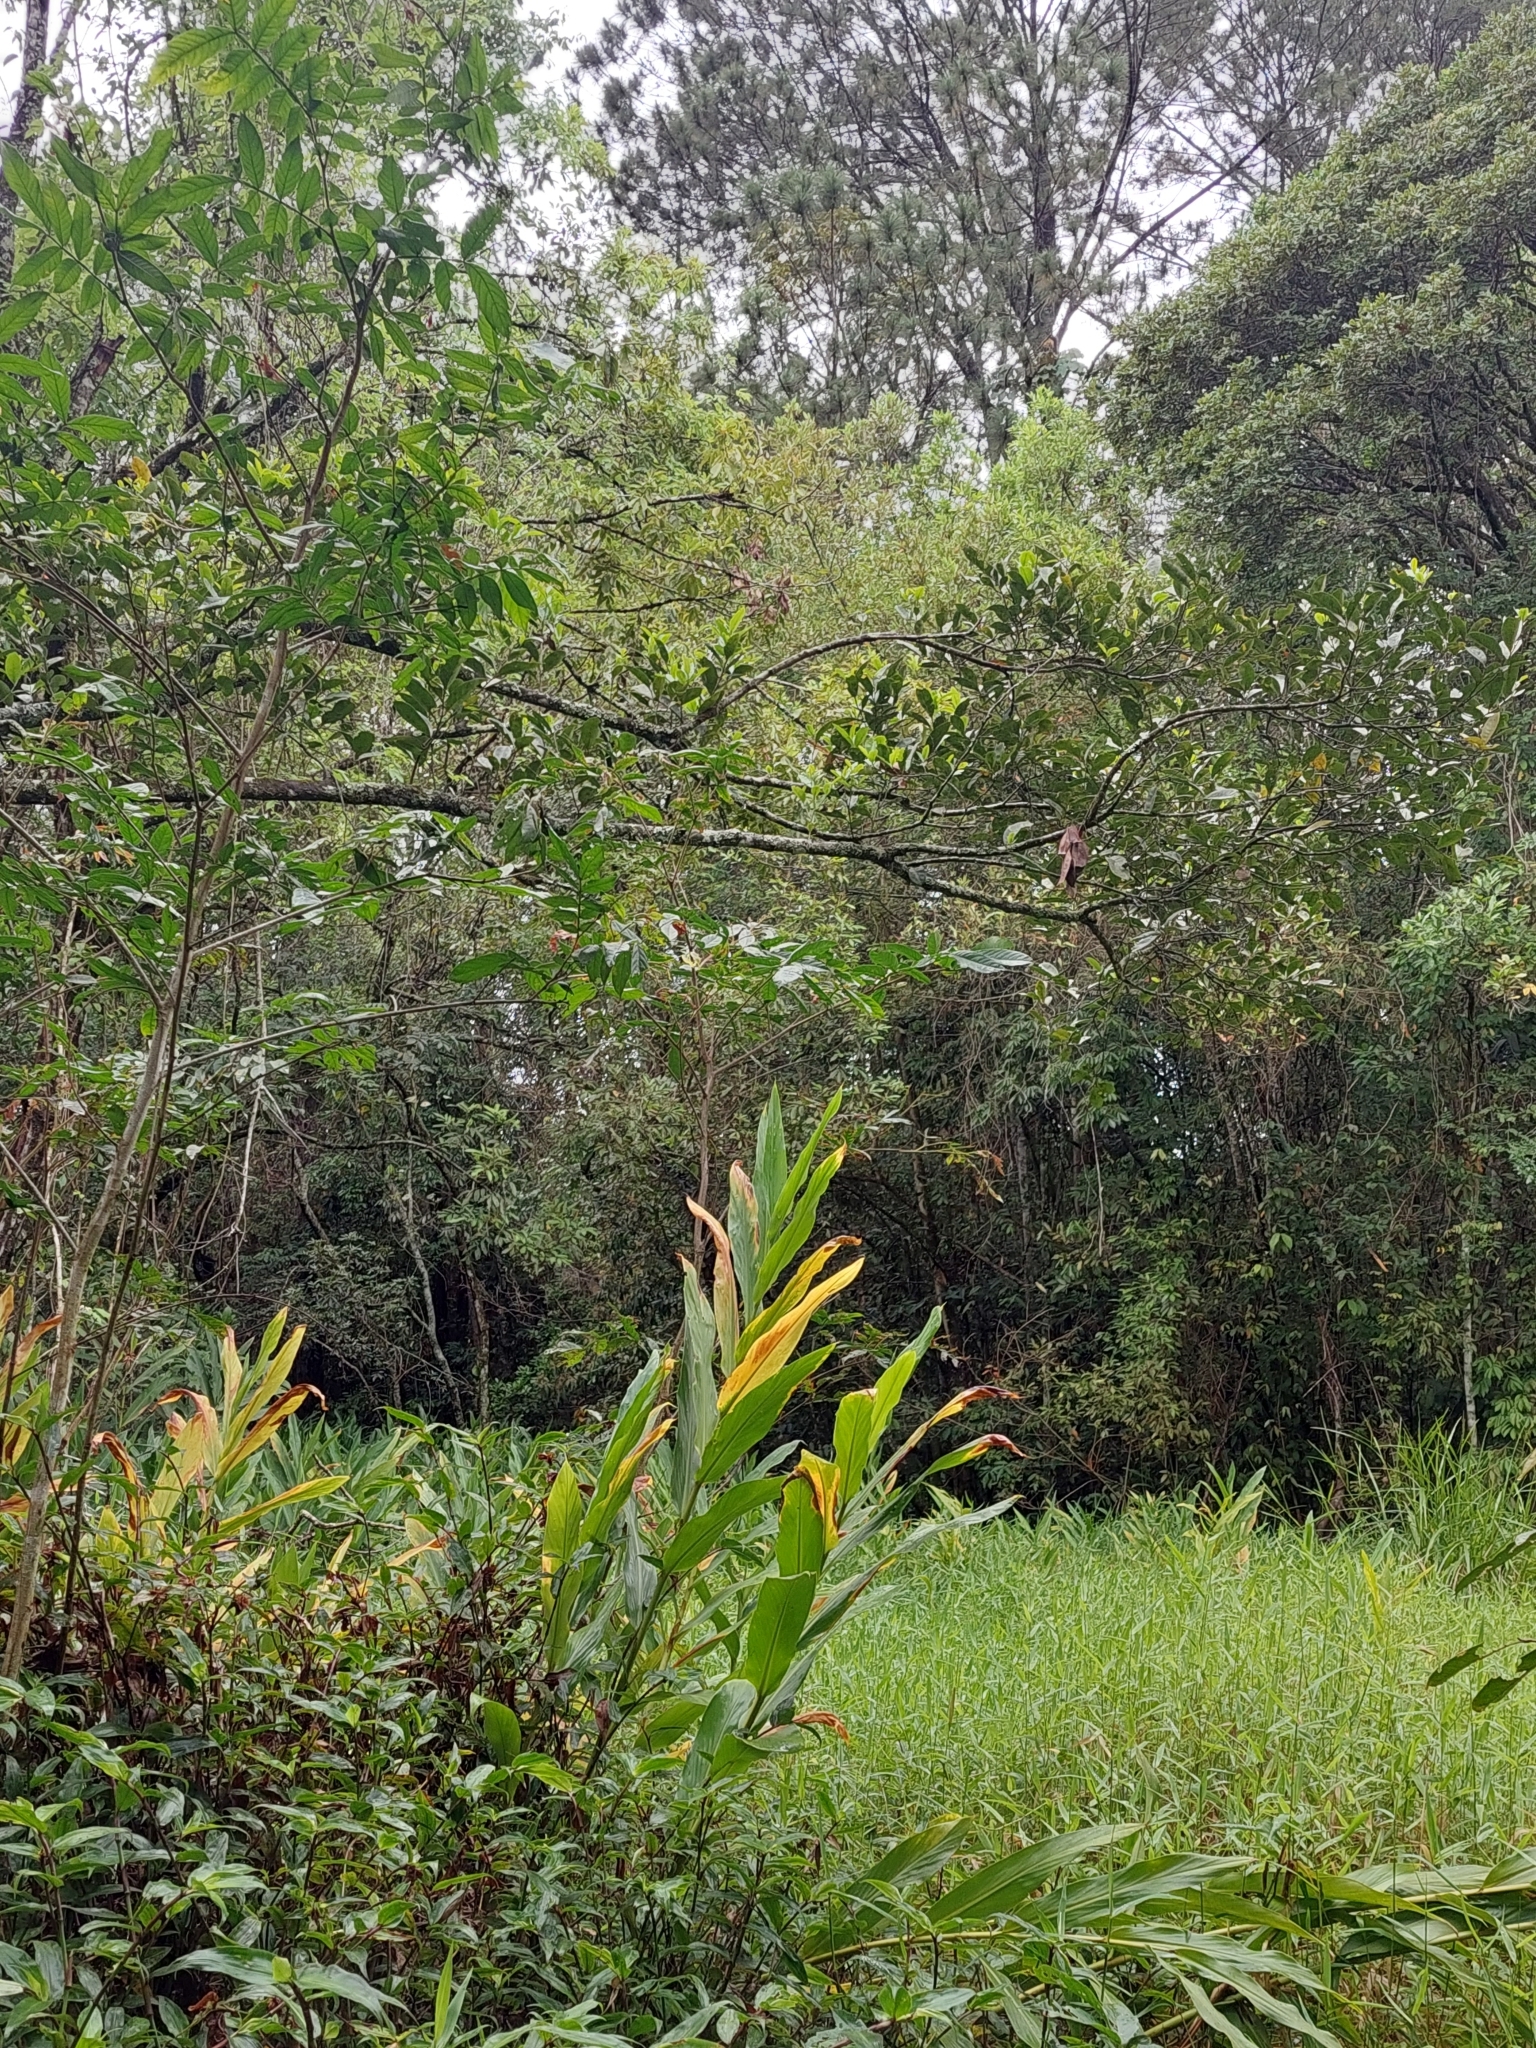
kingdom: Plantae
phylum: Tracheophyta
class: Liliopsida
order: Zingiberales
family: Zingiberaceae
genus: Hedychium
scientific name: Hedychium coronarium
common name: White garland-lily
